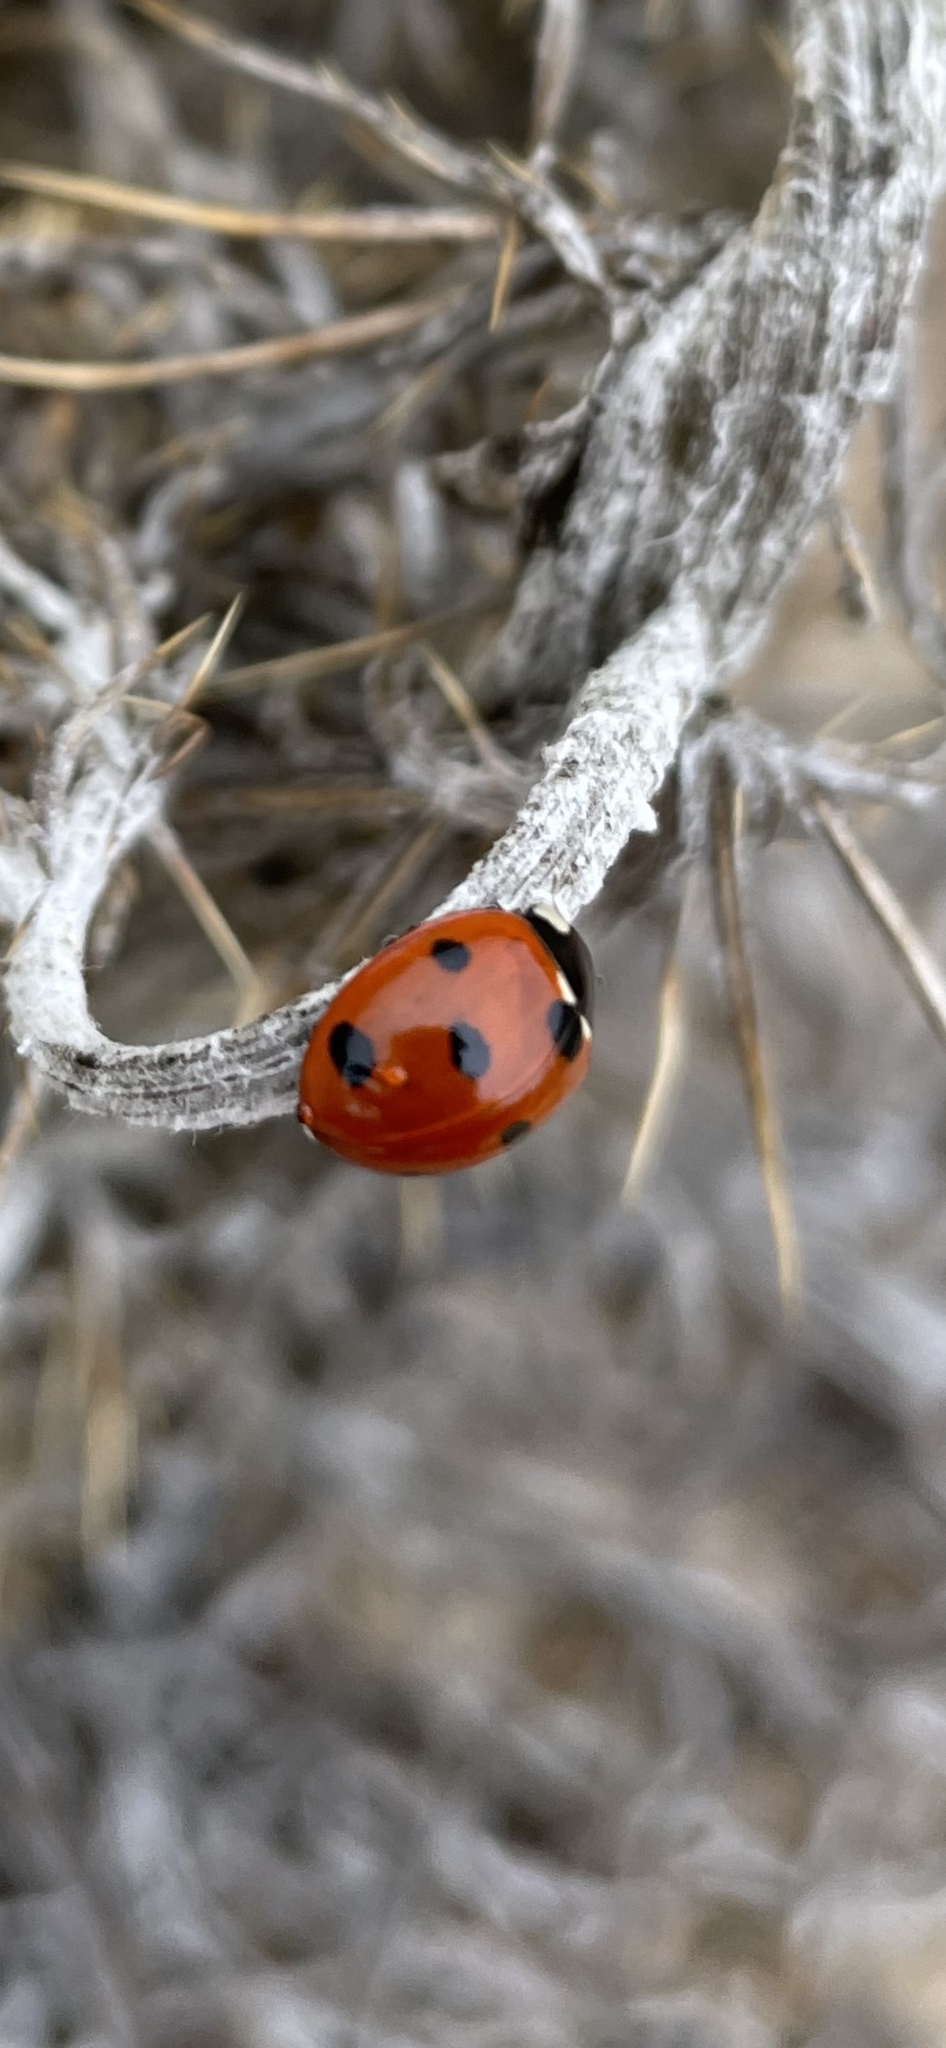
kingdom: Animalia
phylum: Arthropoda
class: Insecta
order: Coleoptera
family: Coccinellidae
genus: Coccinella
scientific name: Coccinella septempunctata
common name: Sevenspotted lady beetle
